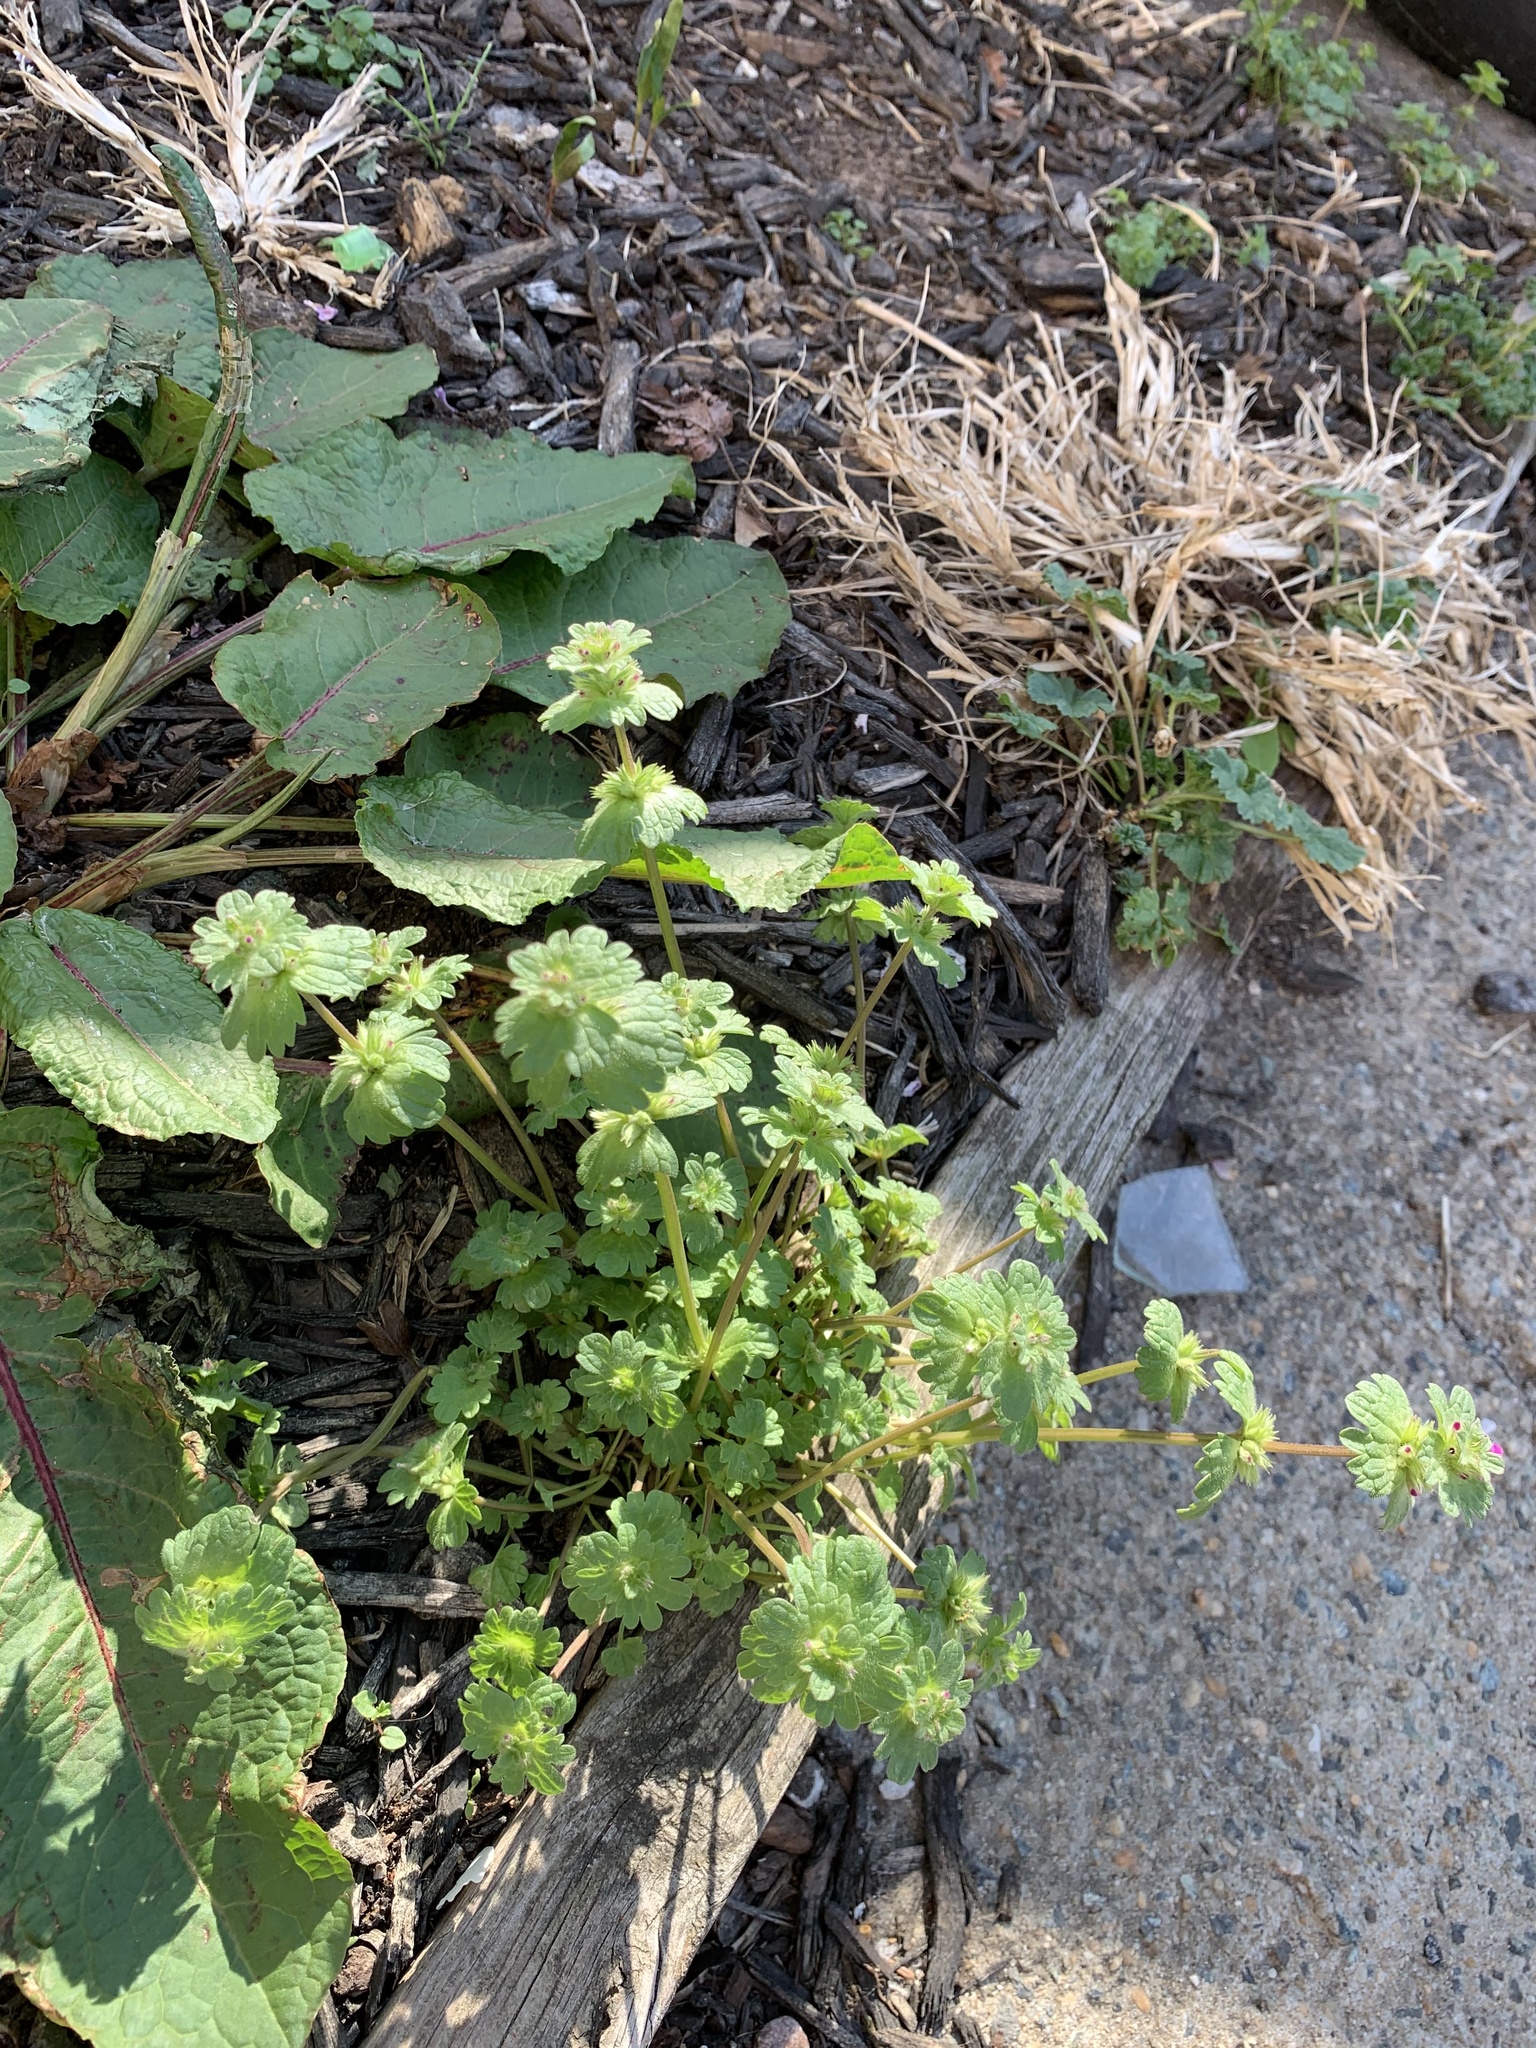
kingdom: Plantae
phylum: Tracheophyta
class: Magnoliopsida
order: Lamiales
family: Lamiaceae
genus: Lamium
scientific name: Lamium amplexicaule
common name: Henbit dead-nettle
